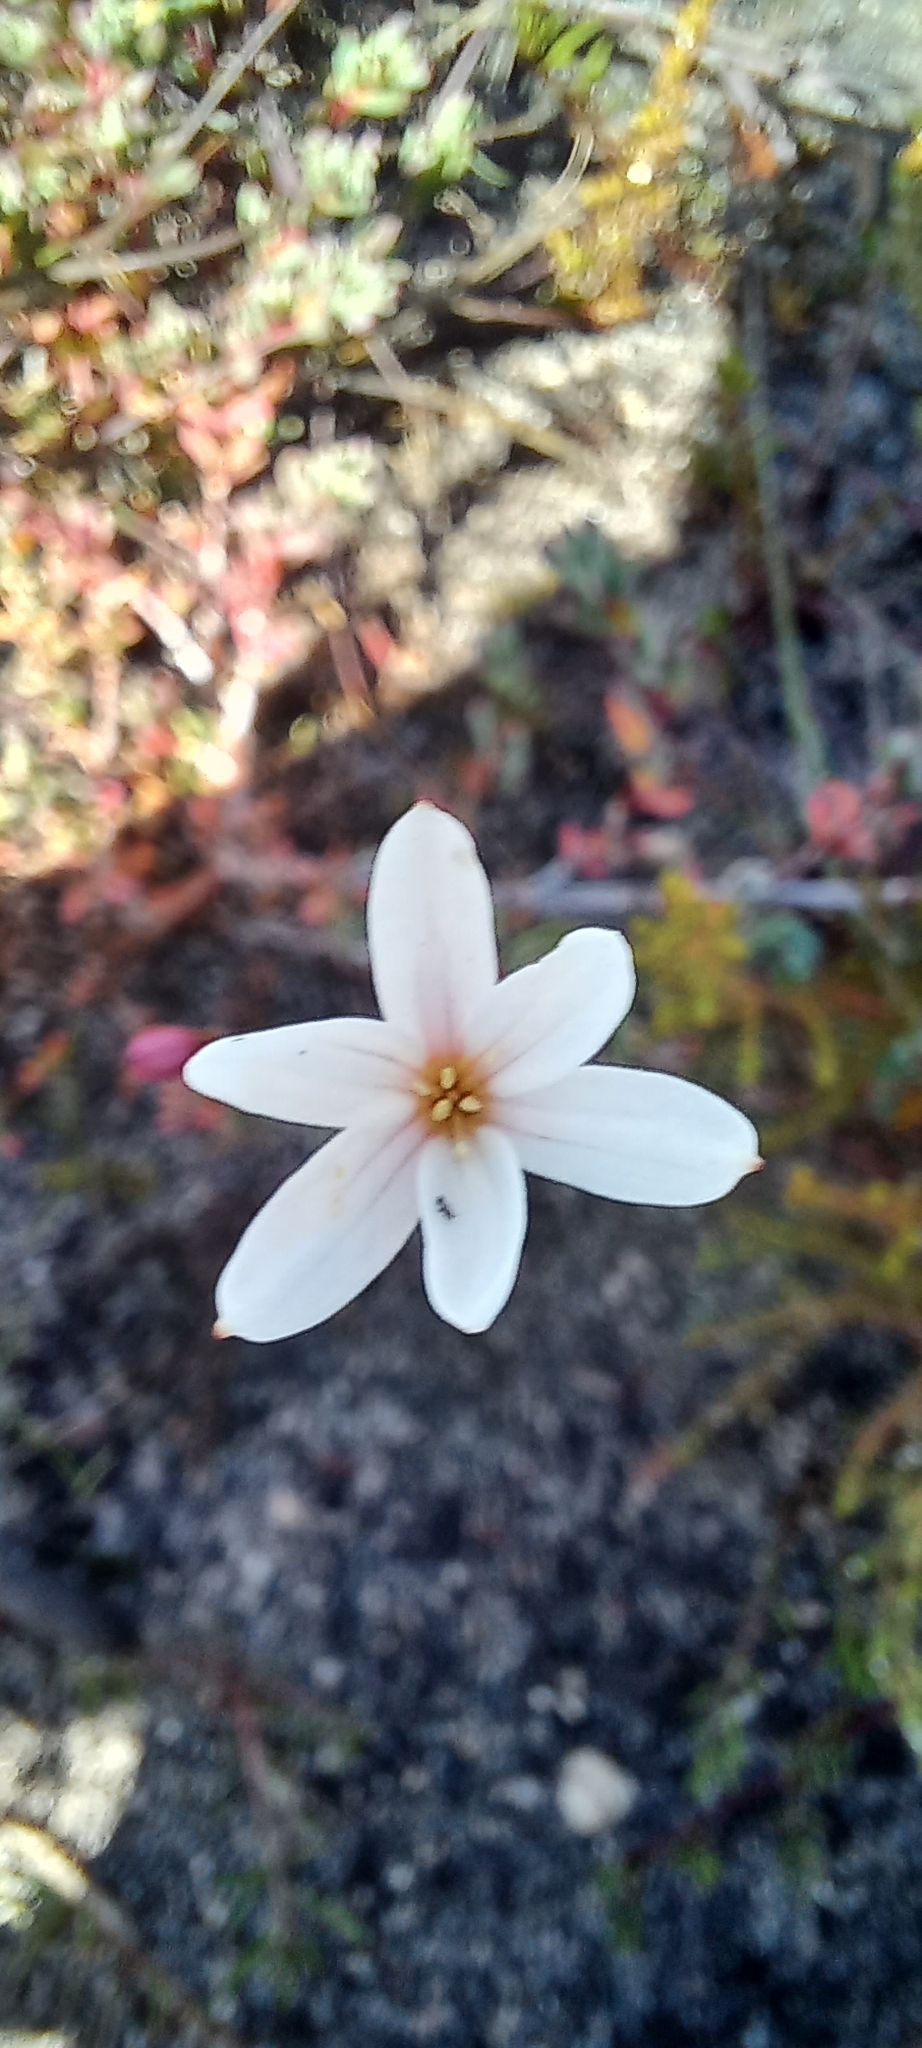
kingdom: Plantae
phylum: Tracheophyta
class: Liliopsida
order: Asparagales
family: Amaryllidaceae
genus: Strumaria
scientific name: Strumaria spiralis
